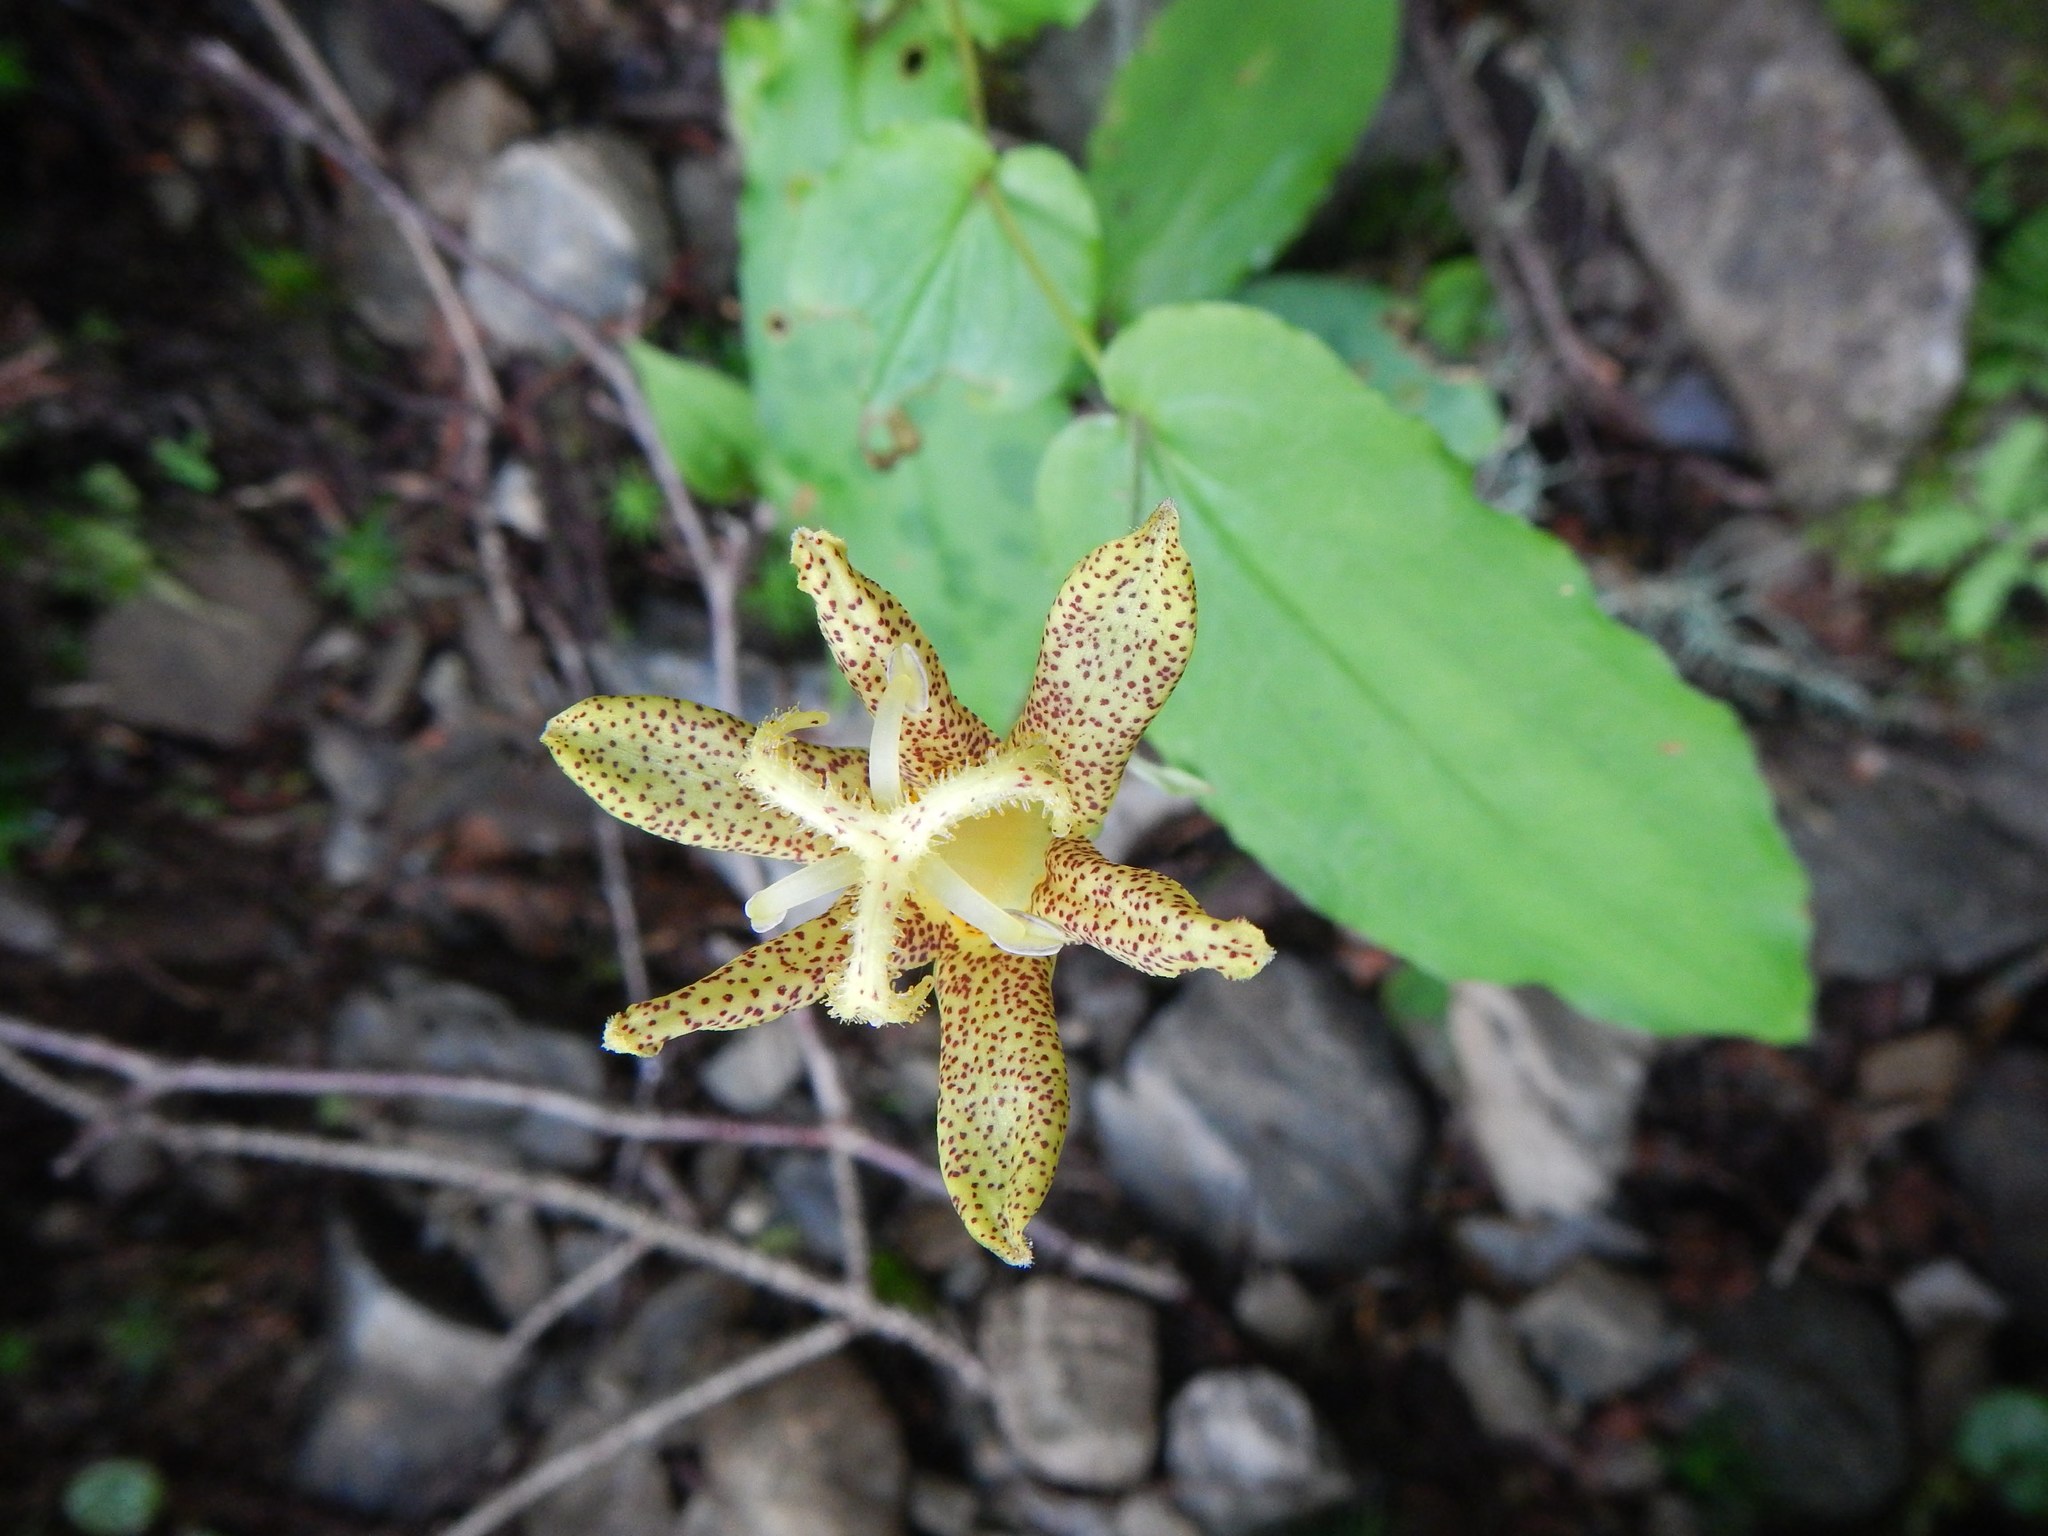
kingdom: Plantae
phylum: Tracheophyta
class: Liliopsida
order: Liliales
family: Liliaceae
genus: Tricyrtis
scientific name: Tricyrtis latifolia
